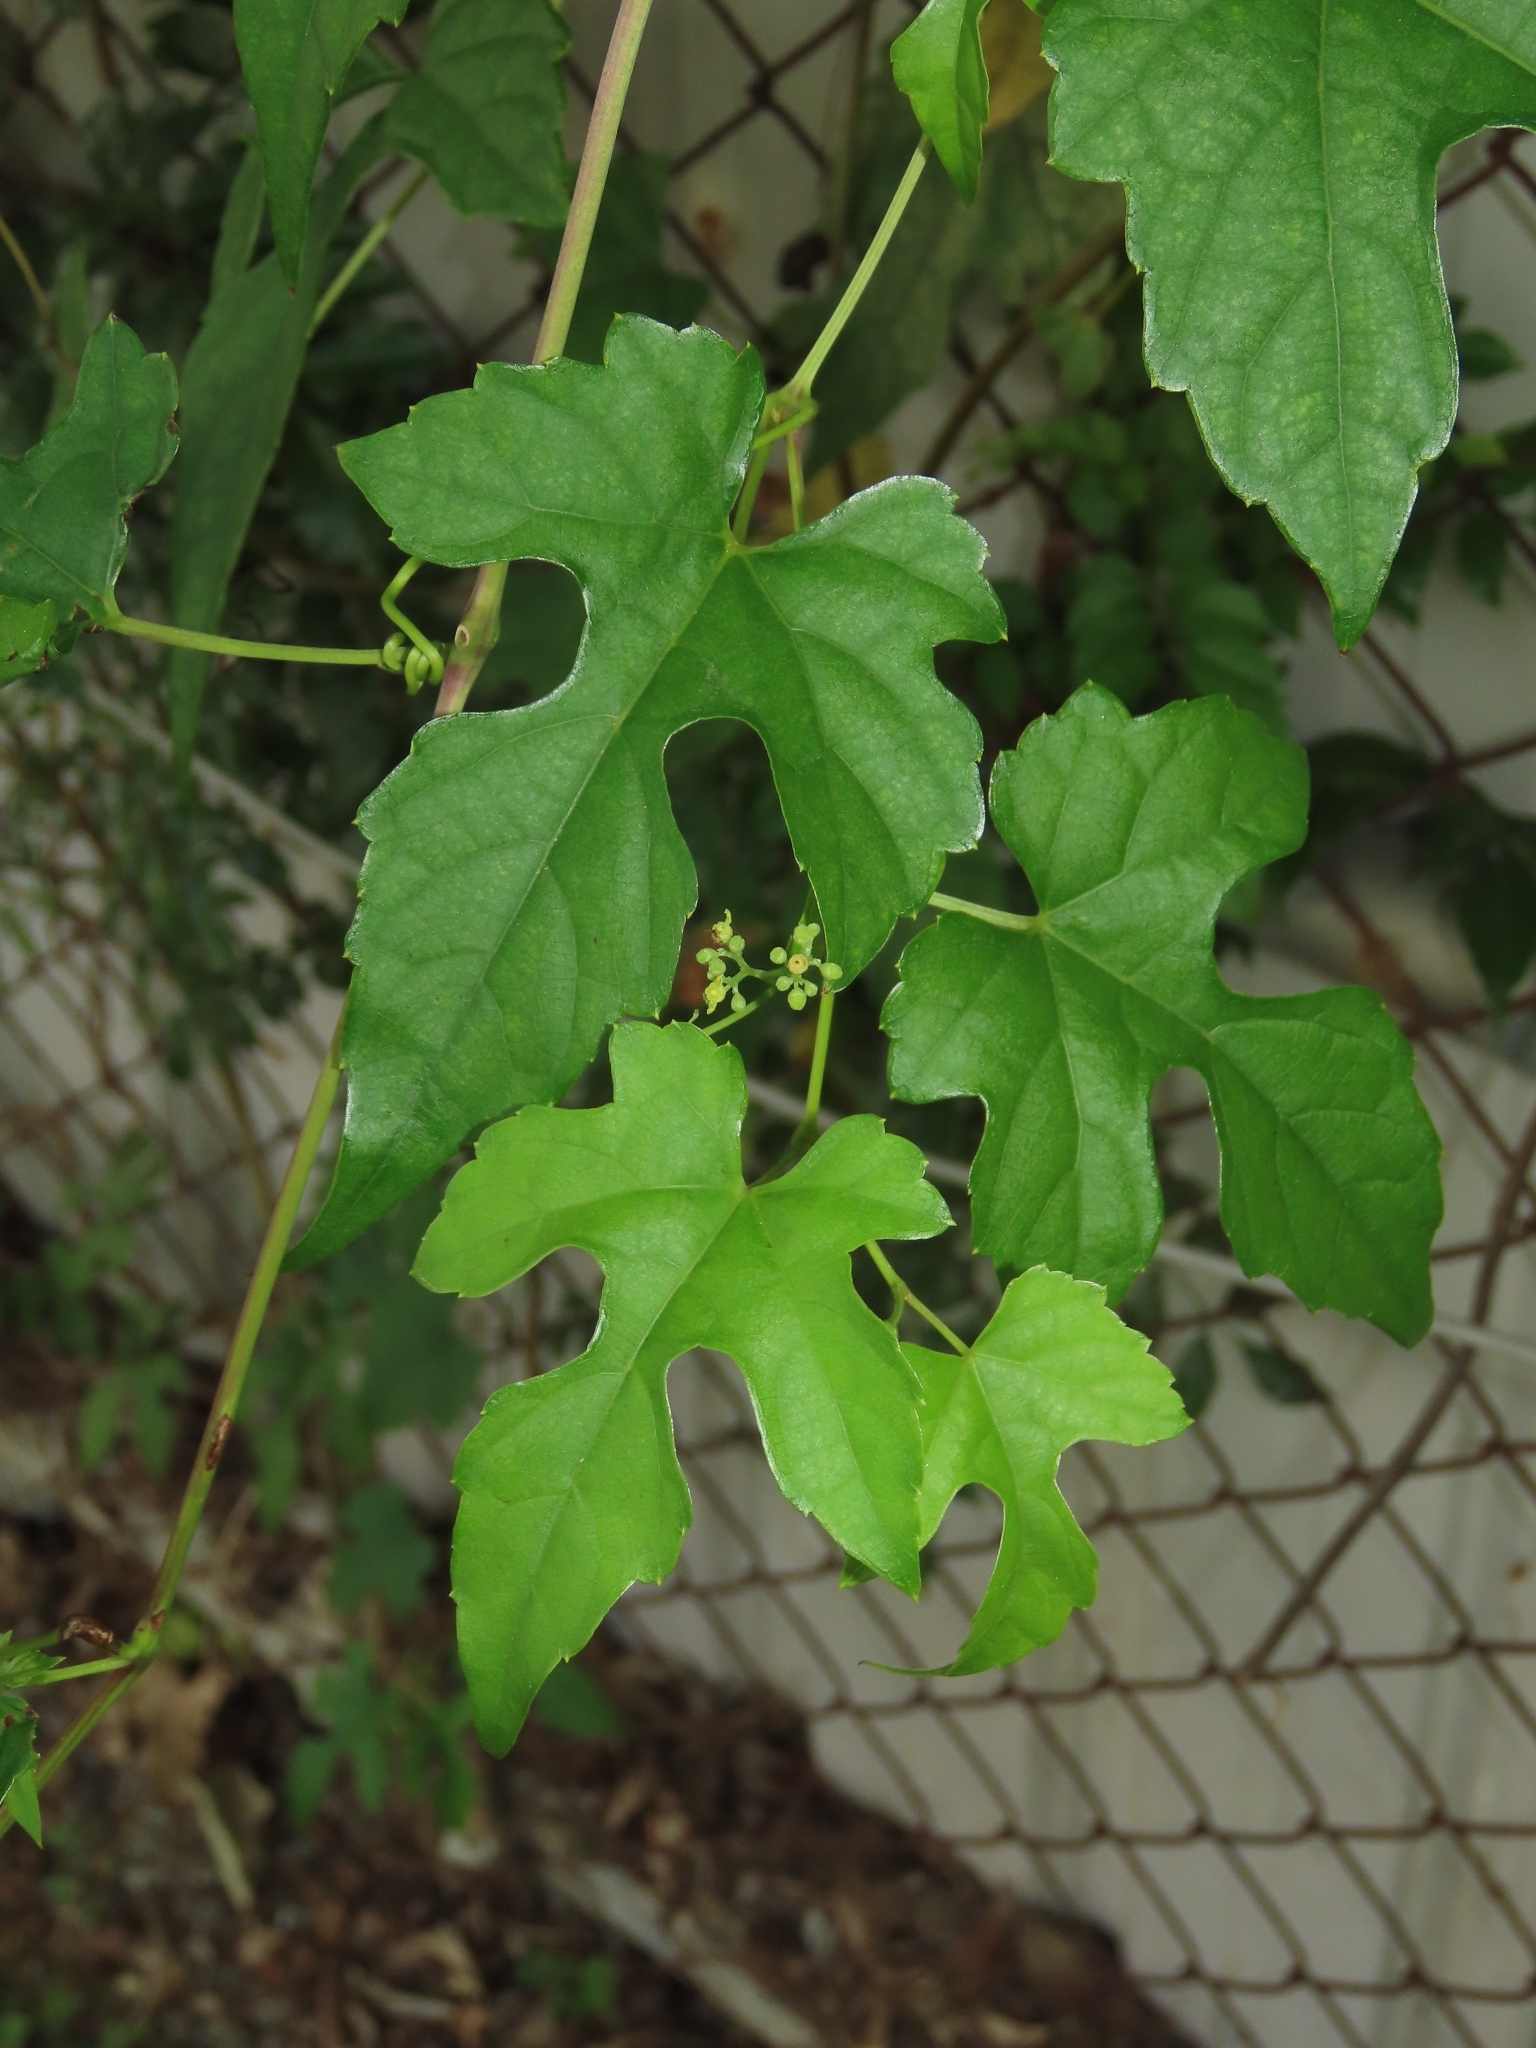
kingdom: Plantae
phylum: Tracheophyta
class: Magnoliopsida
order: Vitales
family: Vitaceae
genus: Ampelopsis
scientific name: Ampelopsis glandulosa
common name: Amur peppervine
